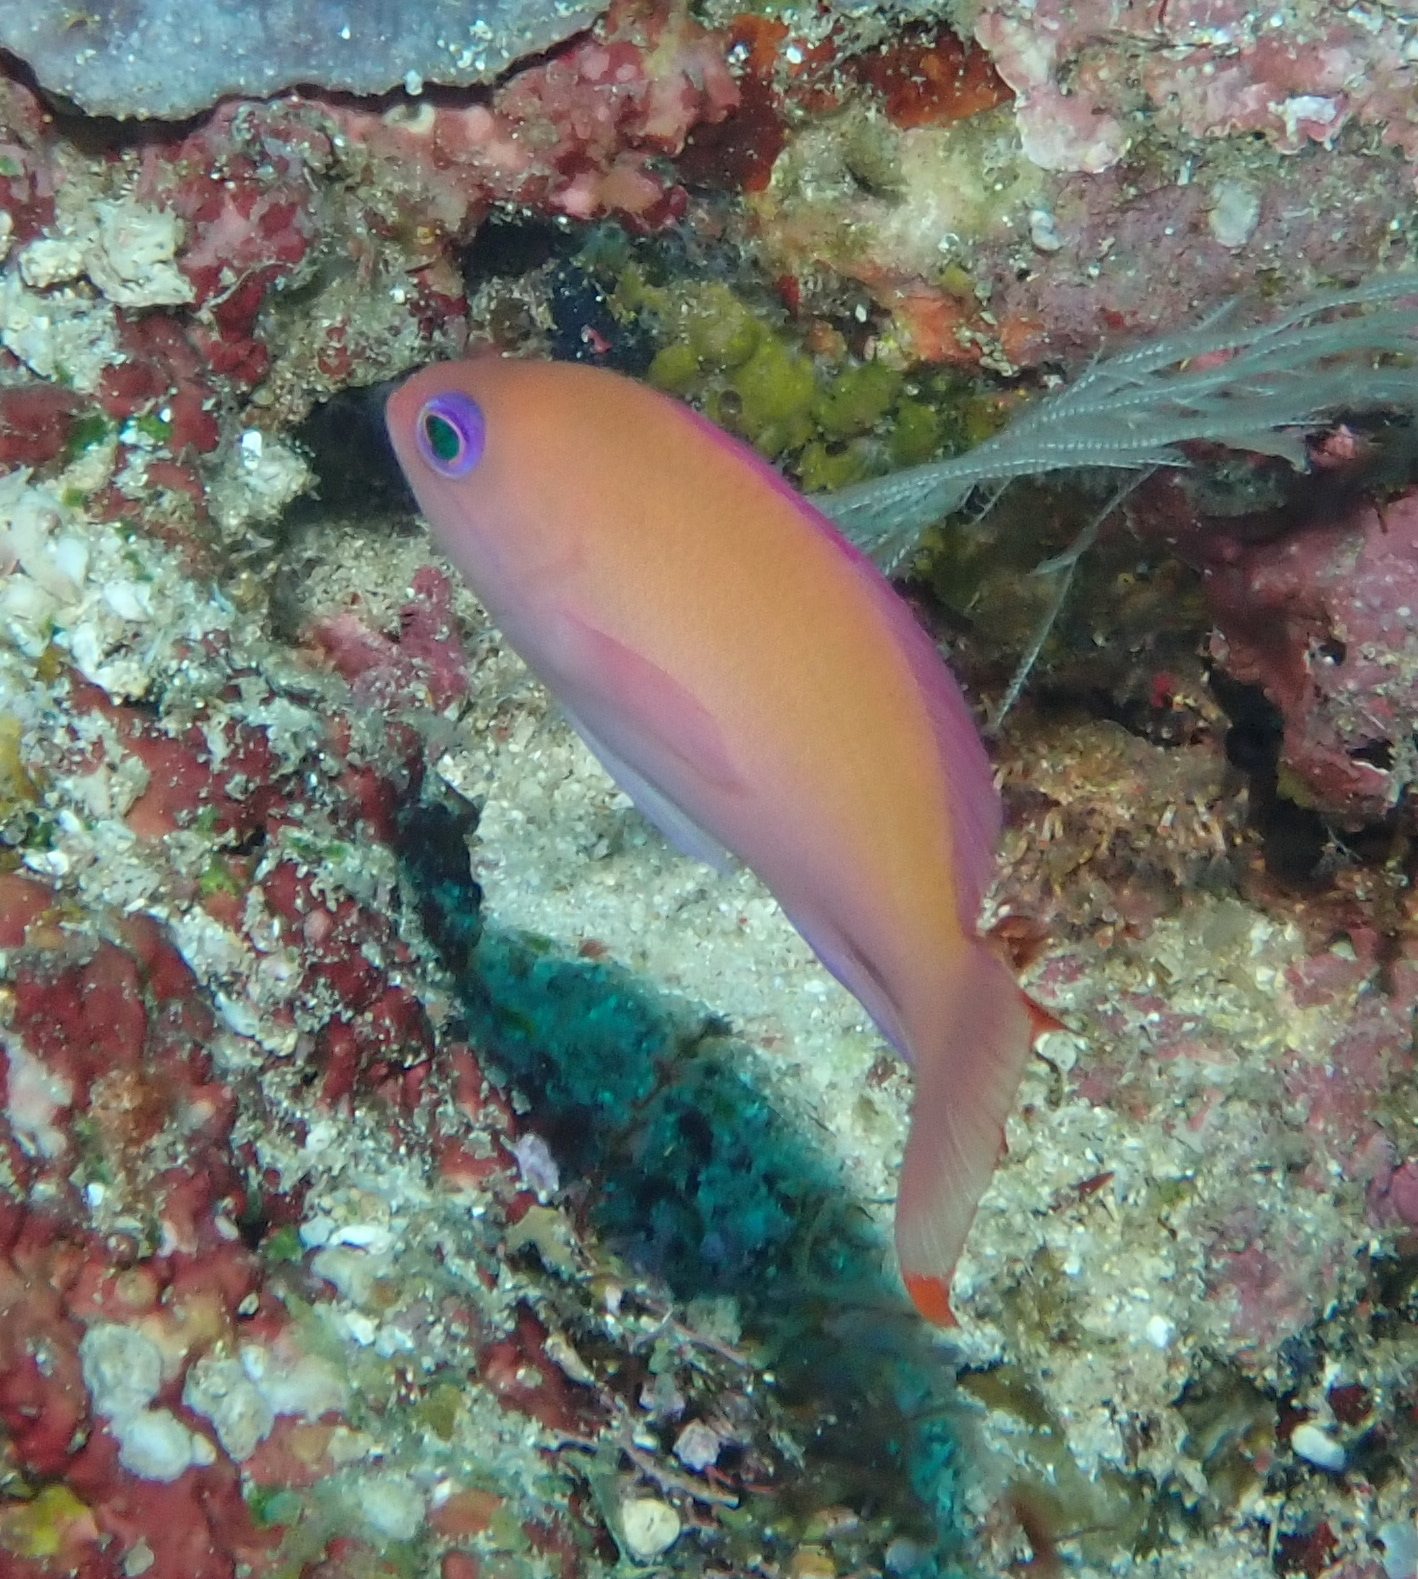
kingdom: Animalia
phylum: Chordata
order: Perciformes
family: Serranidae
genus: Pseudanthias
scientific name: Pseudanthias hypselosoma
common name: Pink basslet
